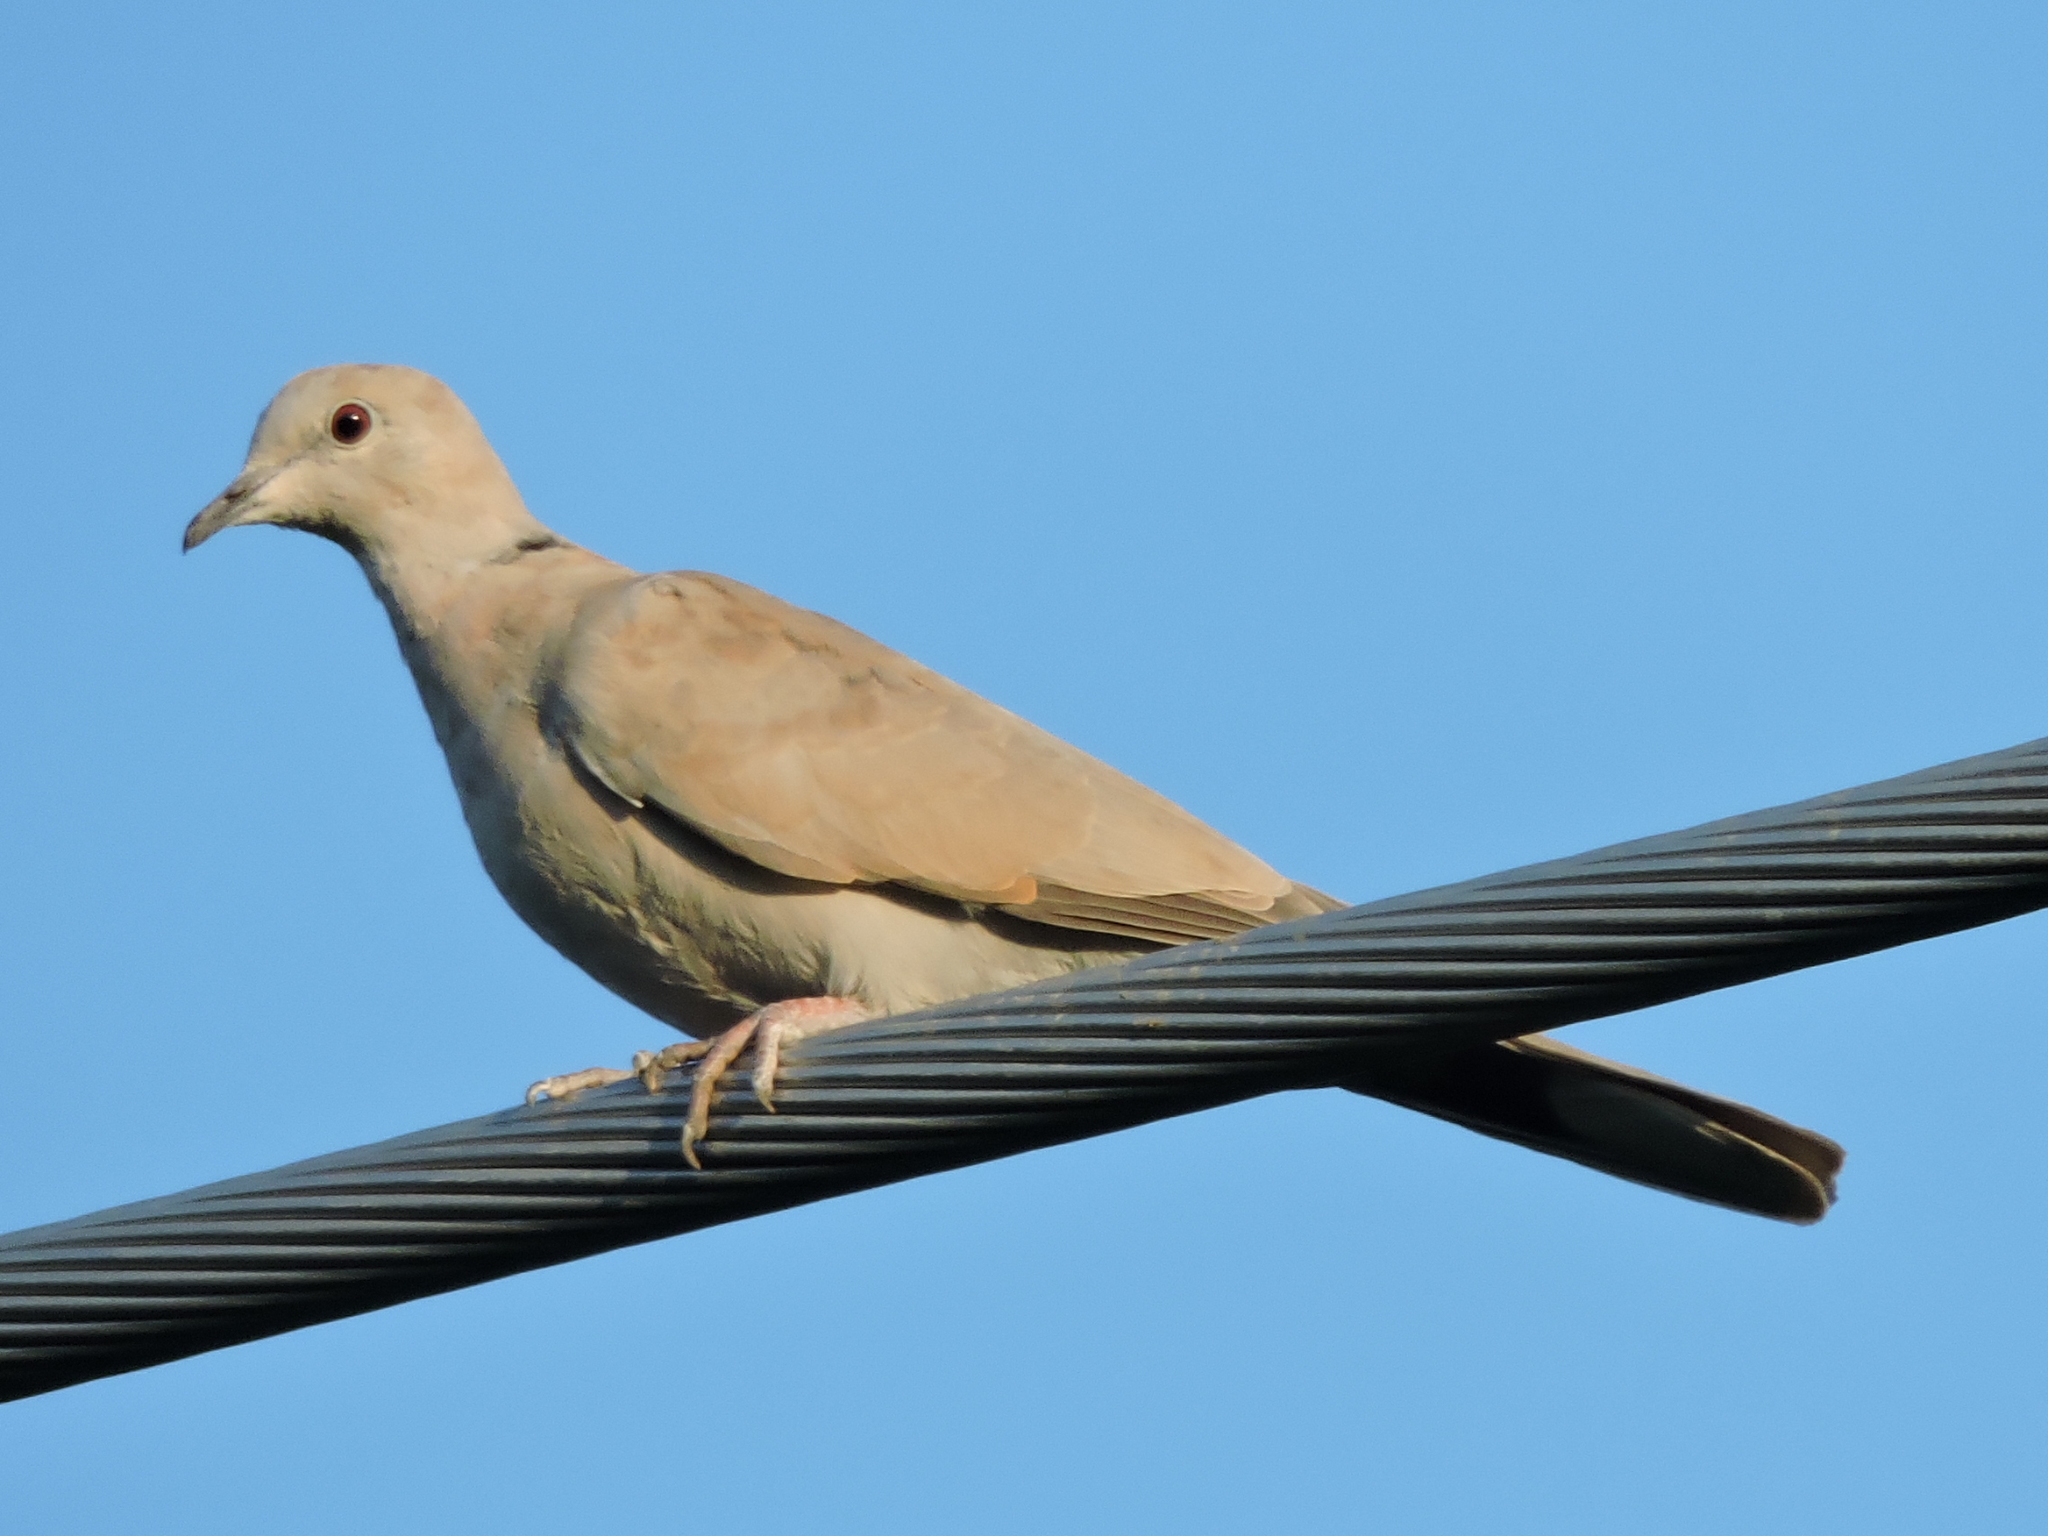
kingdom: Animalia
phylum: Chordata
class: Aves
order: Columbiformes
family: Columbidae
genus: Streptopelia
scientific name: Streptopelia decaocto
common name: Eurasian collared dove
